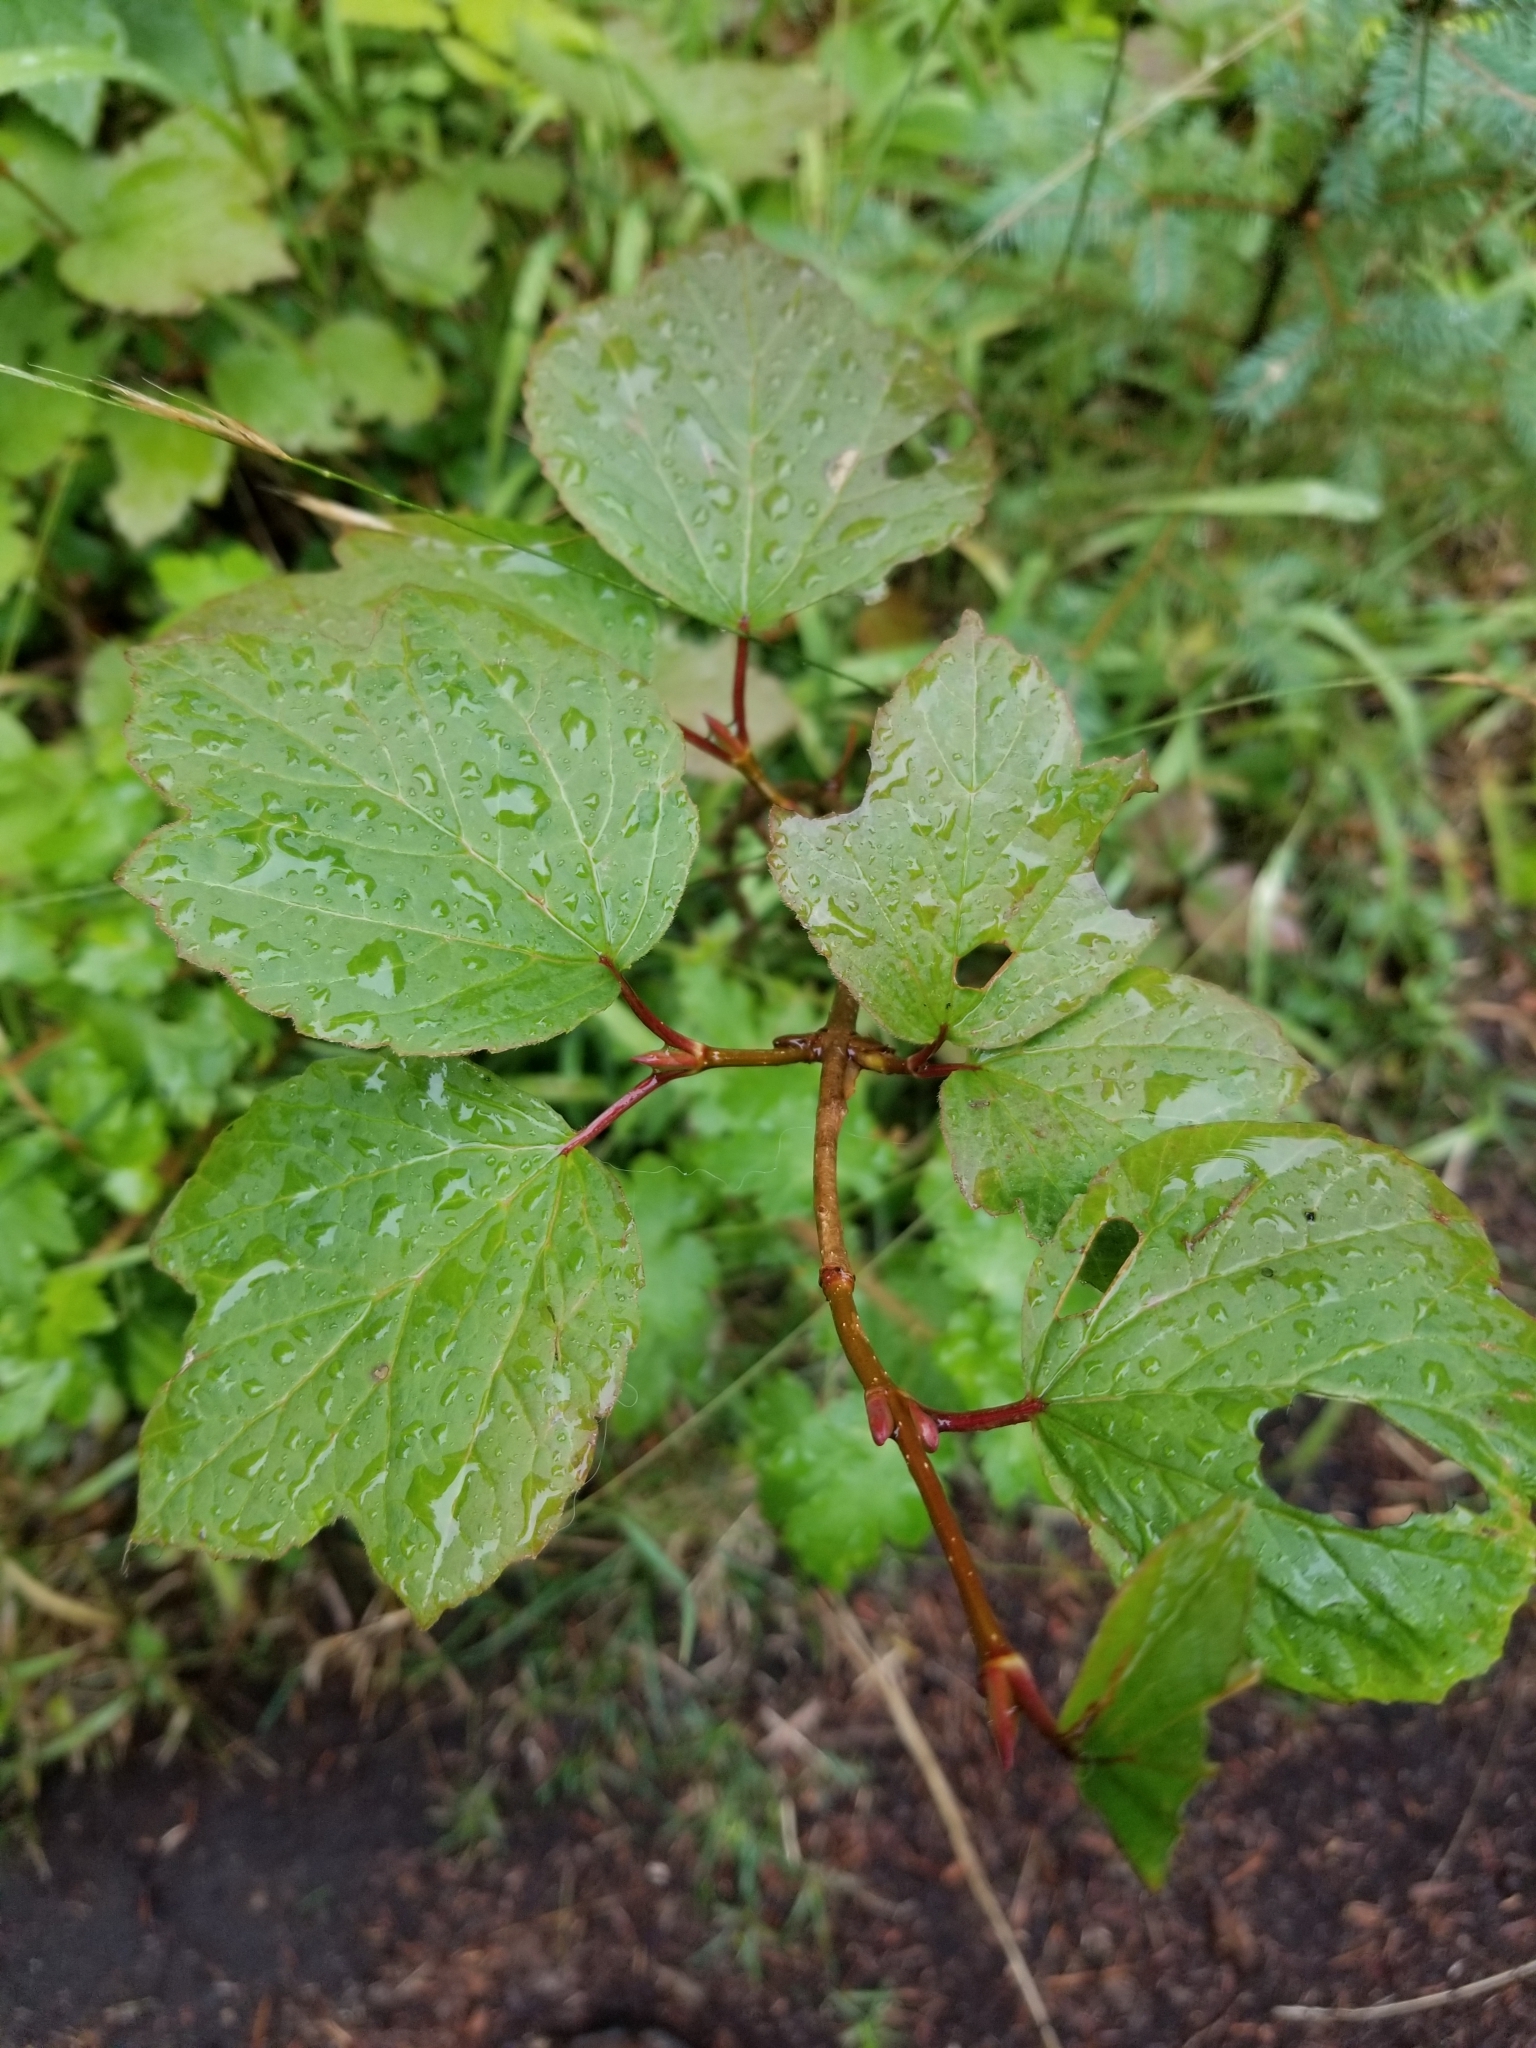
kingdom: Plantae
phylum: Tracheophyta
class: Magnoliopsida
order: Dipsacales
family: Viburnaceae
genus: Viburnum
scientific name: Viburnum edule
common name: Mooseberry
